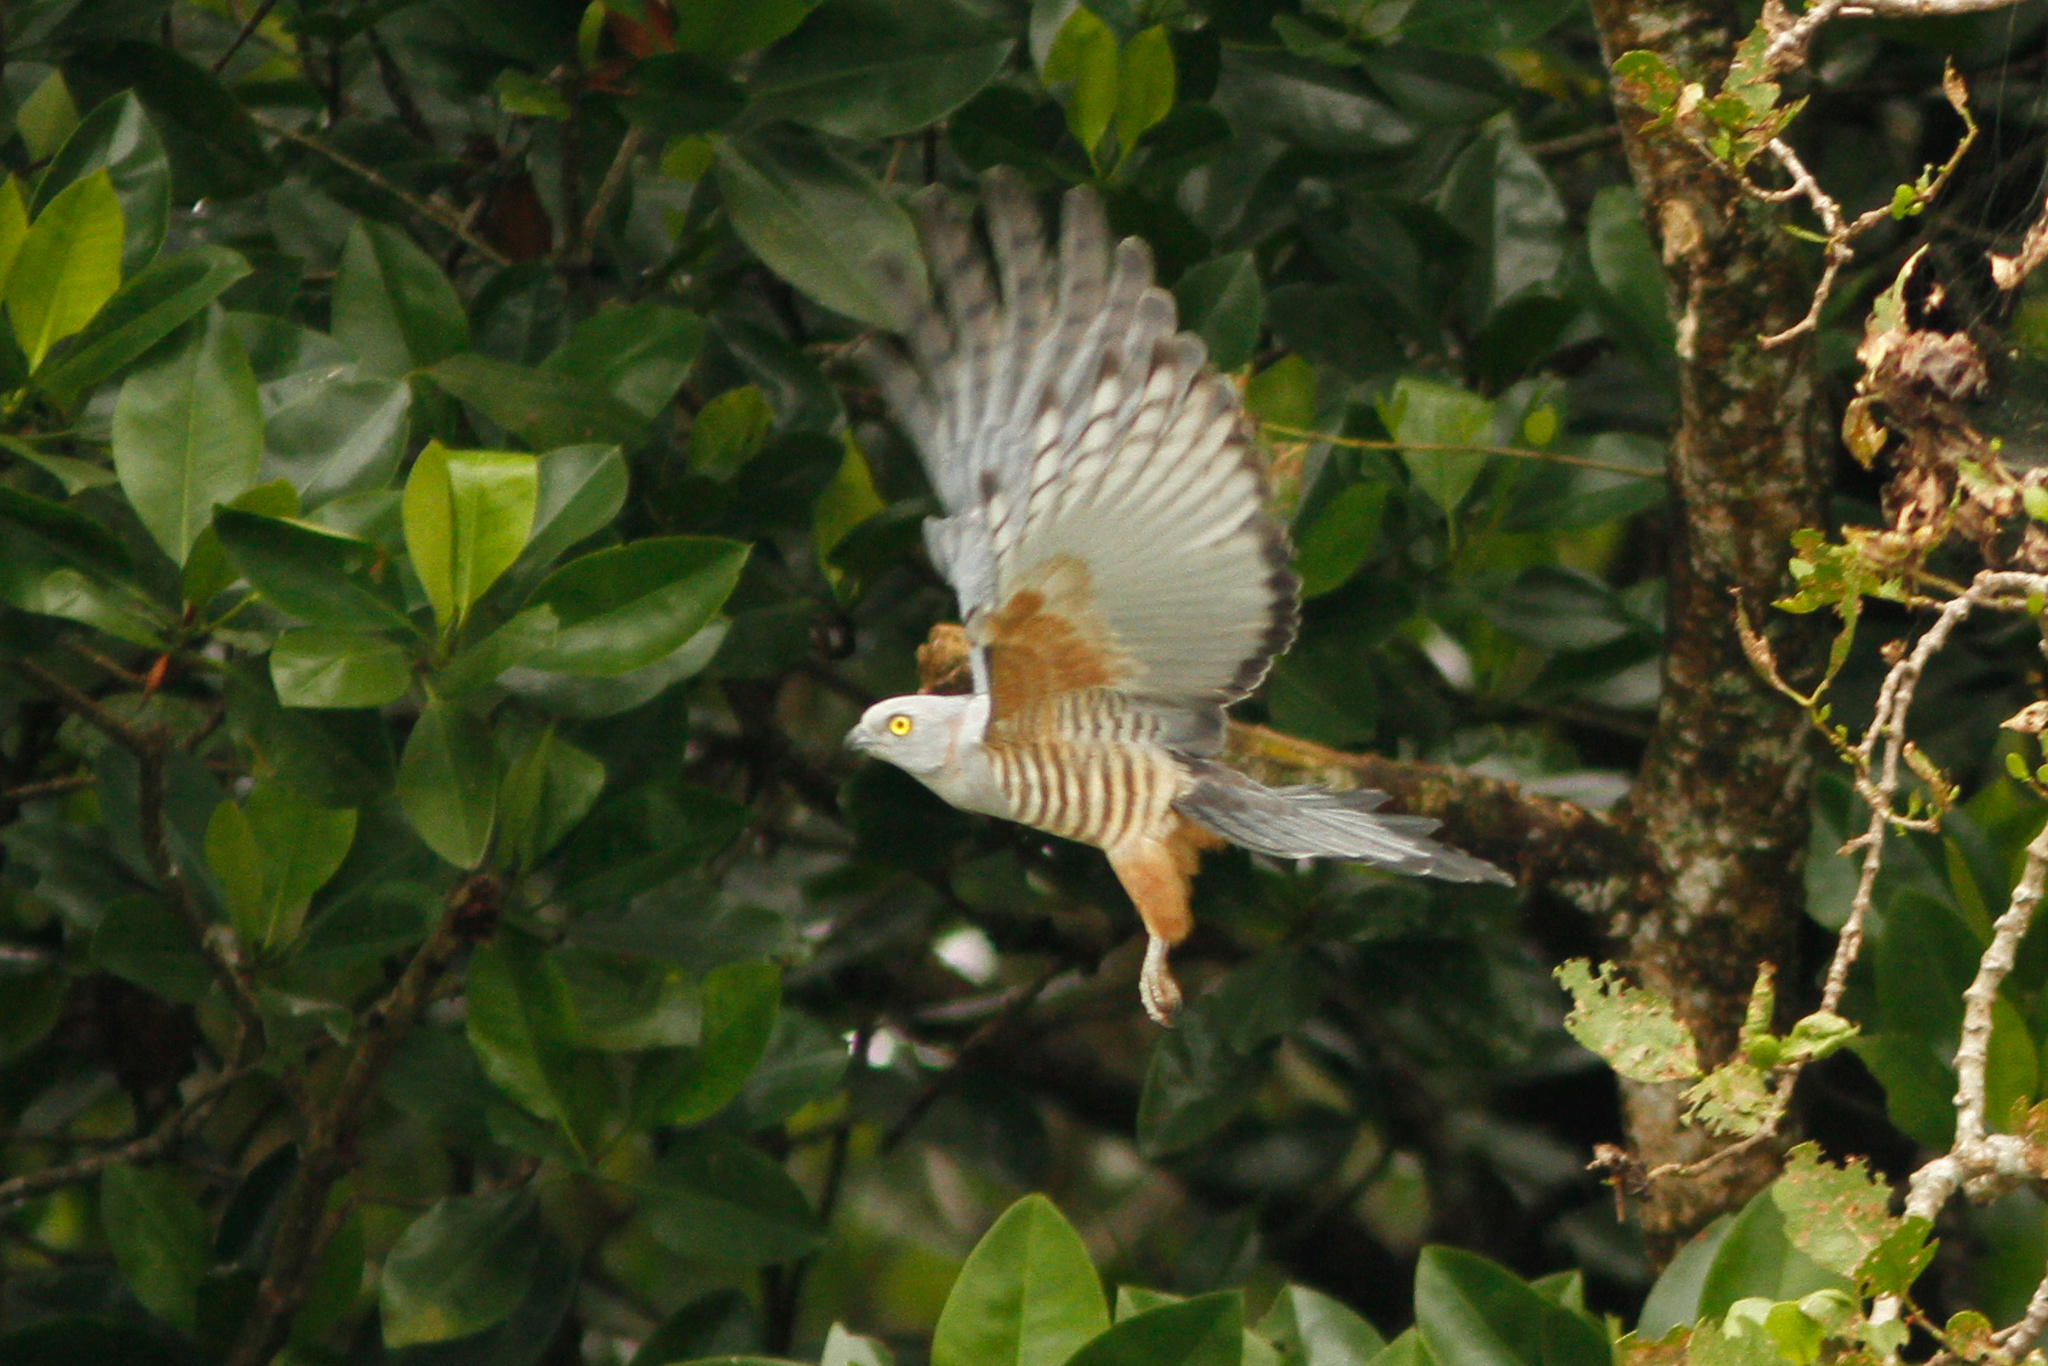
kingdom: Animalia
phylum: Chordata
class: Aves
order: Accipitriformes
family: Accipitridae
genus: Aviceda
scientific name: Aviceda subcristata
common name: Pacific baza
